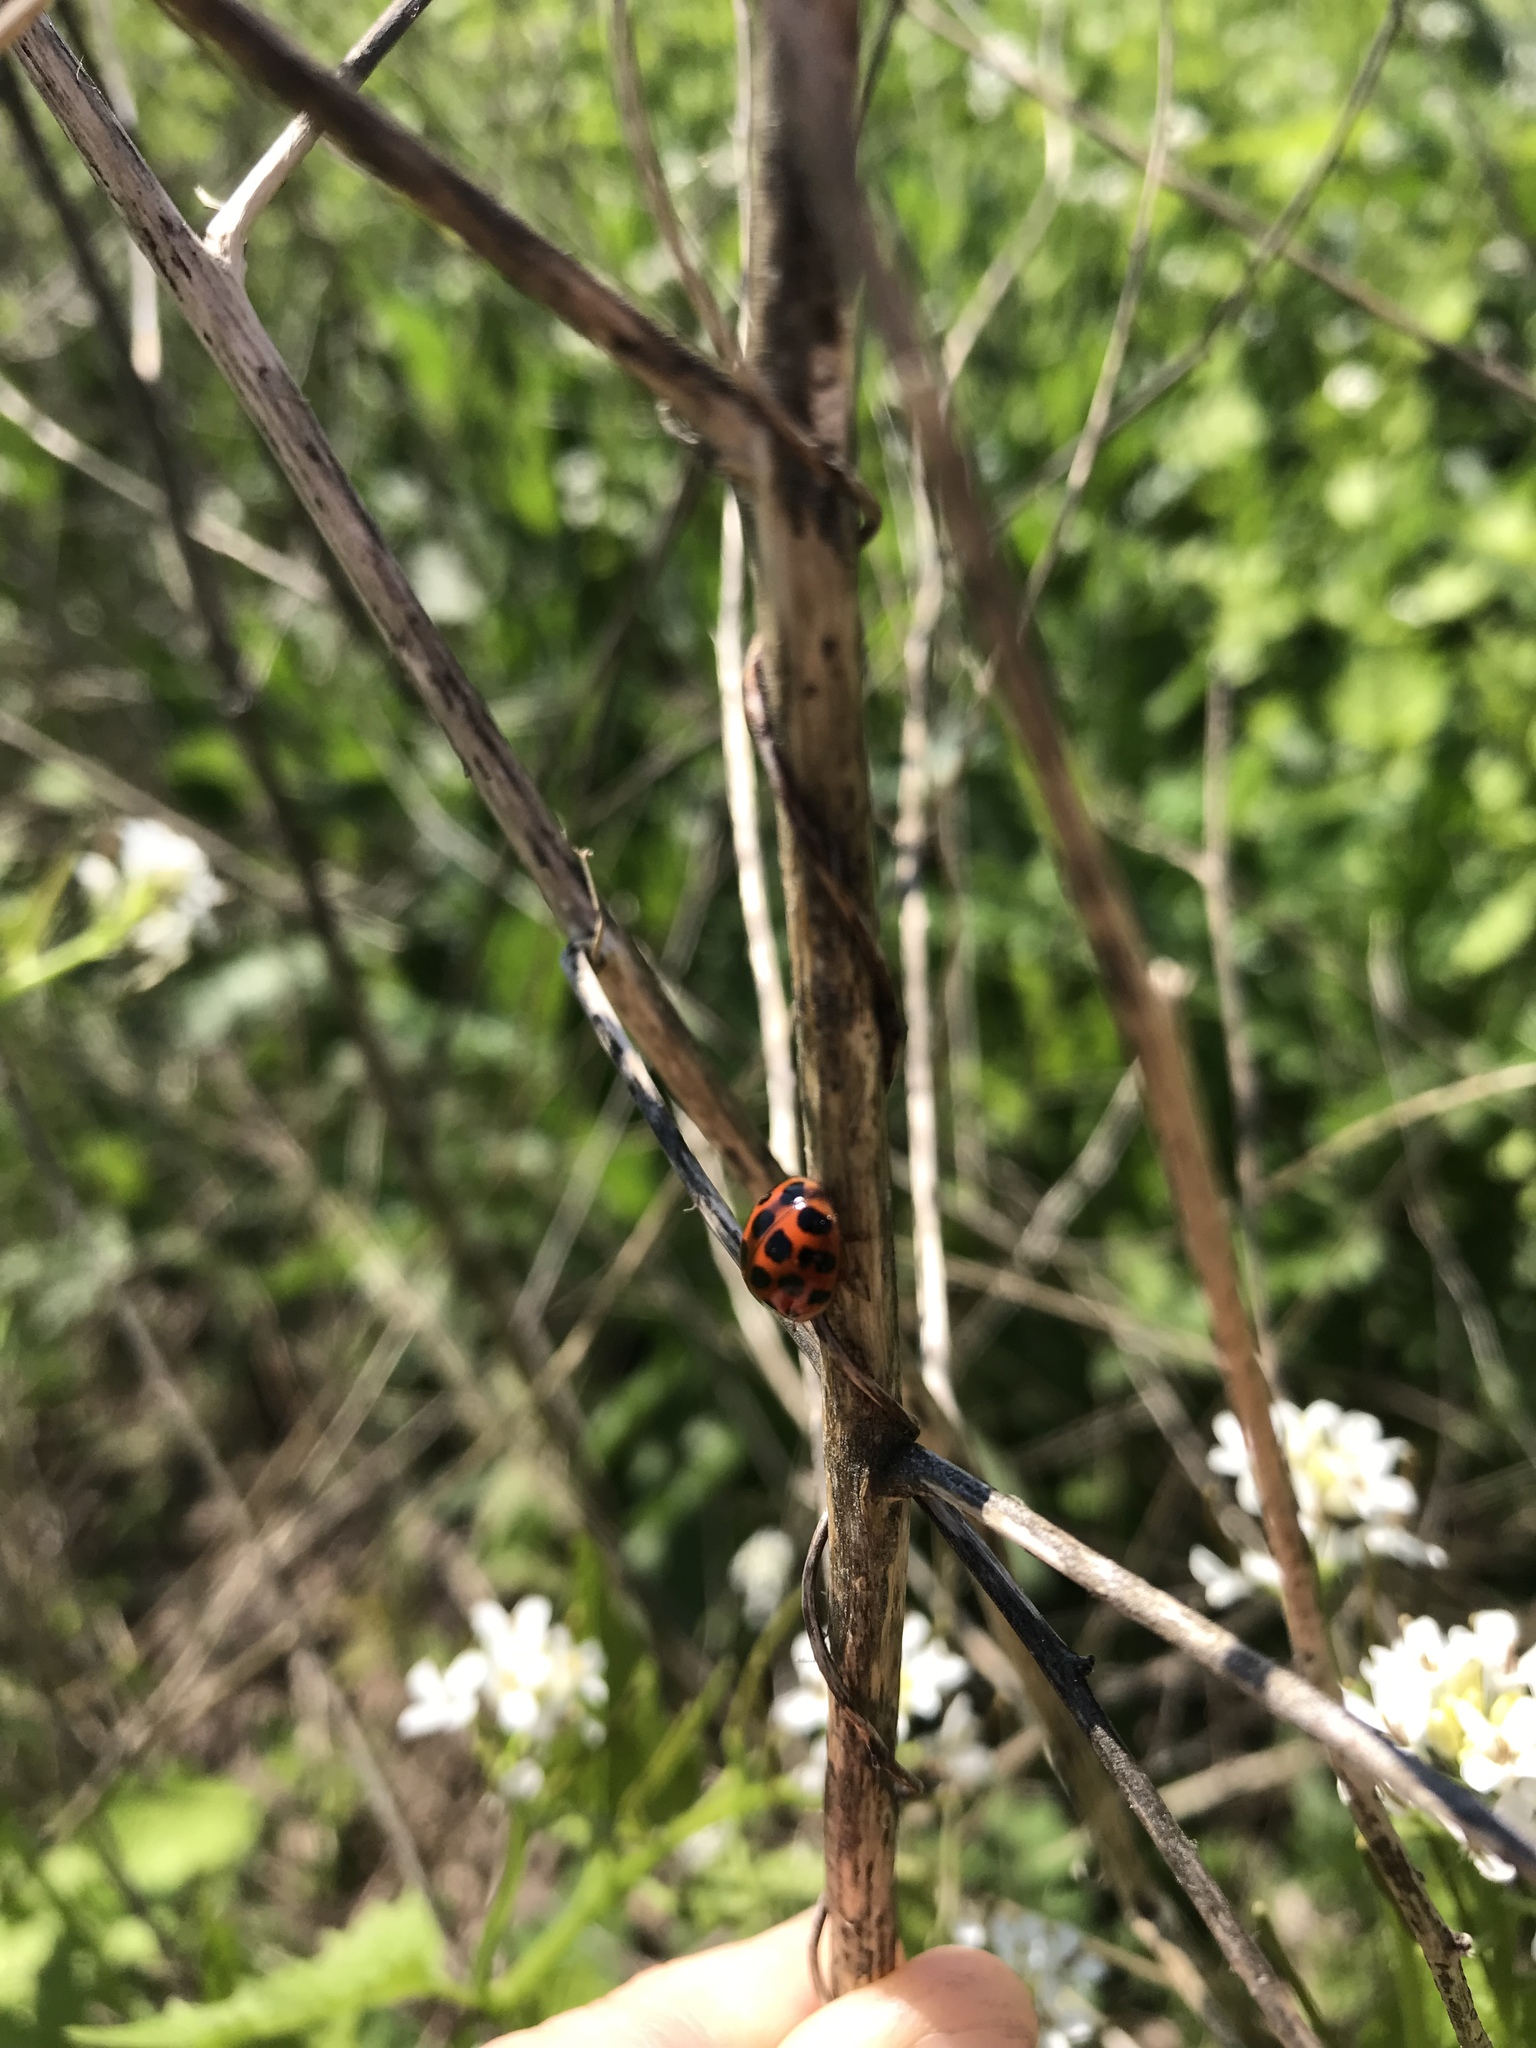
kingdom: Animalia
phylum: Arthropoda
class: Insecta
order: Coleoptera
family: Coccinellidae
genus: Harmonia
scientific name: Harmonia axyridis
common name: Harlequin ladybird
